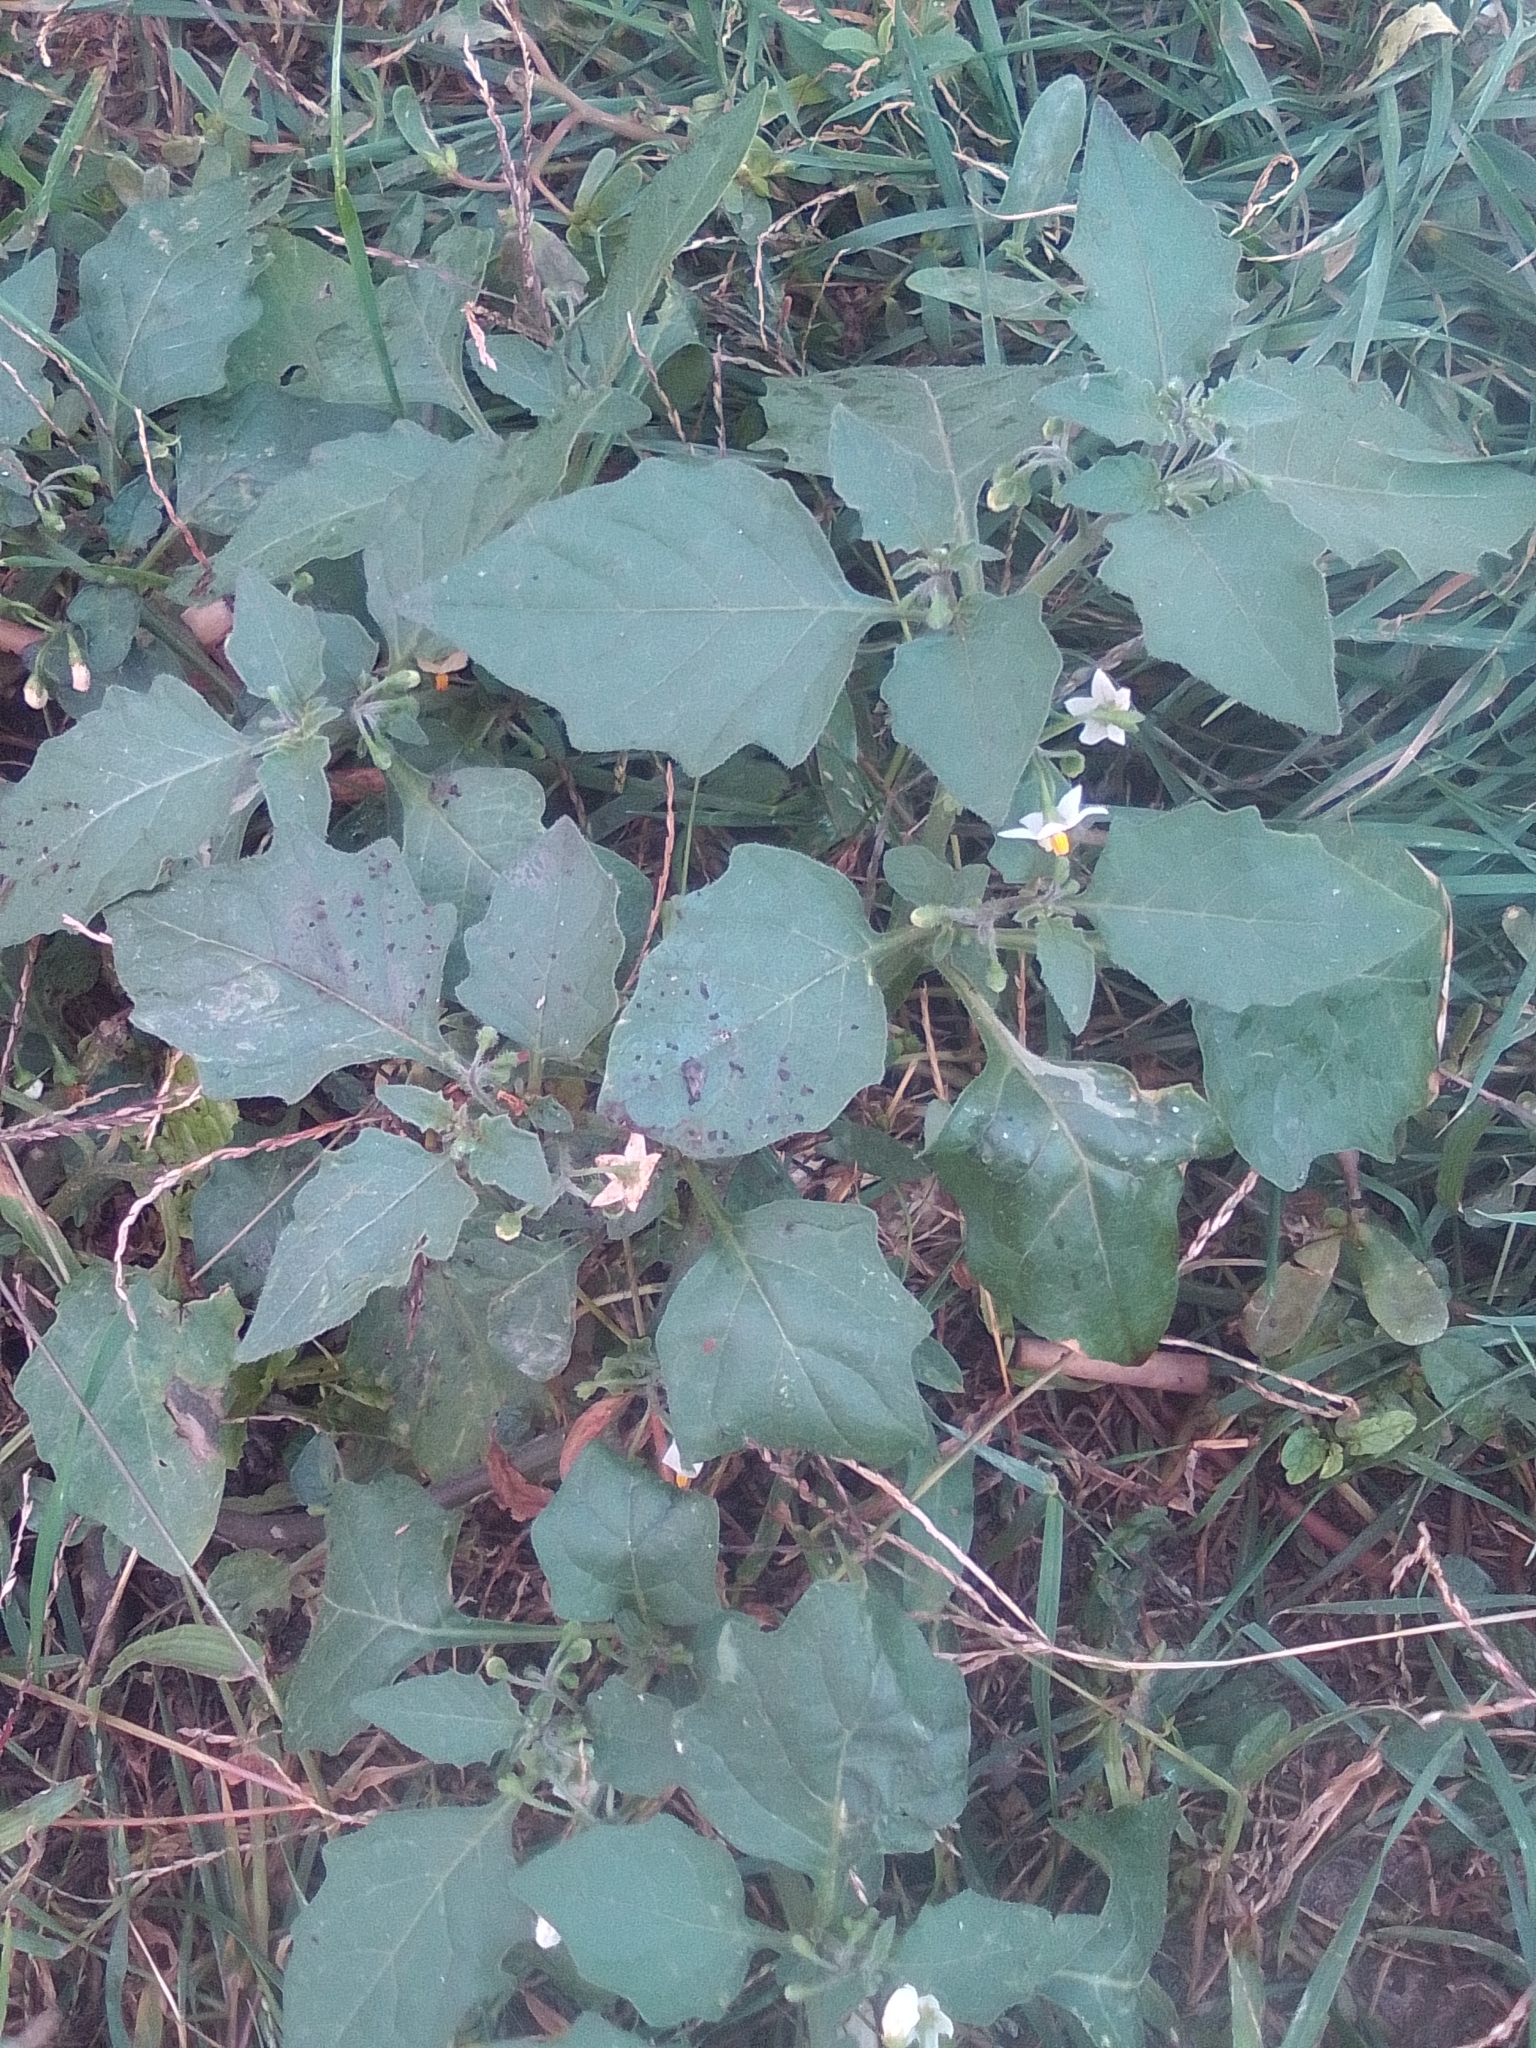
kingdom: Plantae
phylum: Tracheophyta
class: Magnoliopsida
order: Solanales
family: Solanaceae
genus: Solanum
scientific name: Solanum nigrum
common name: Black nightshade
